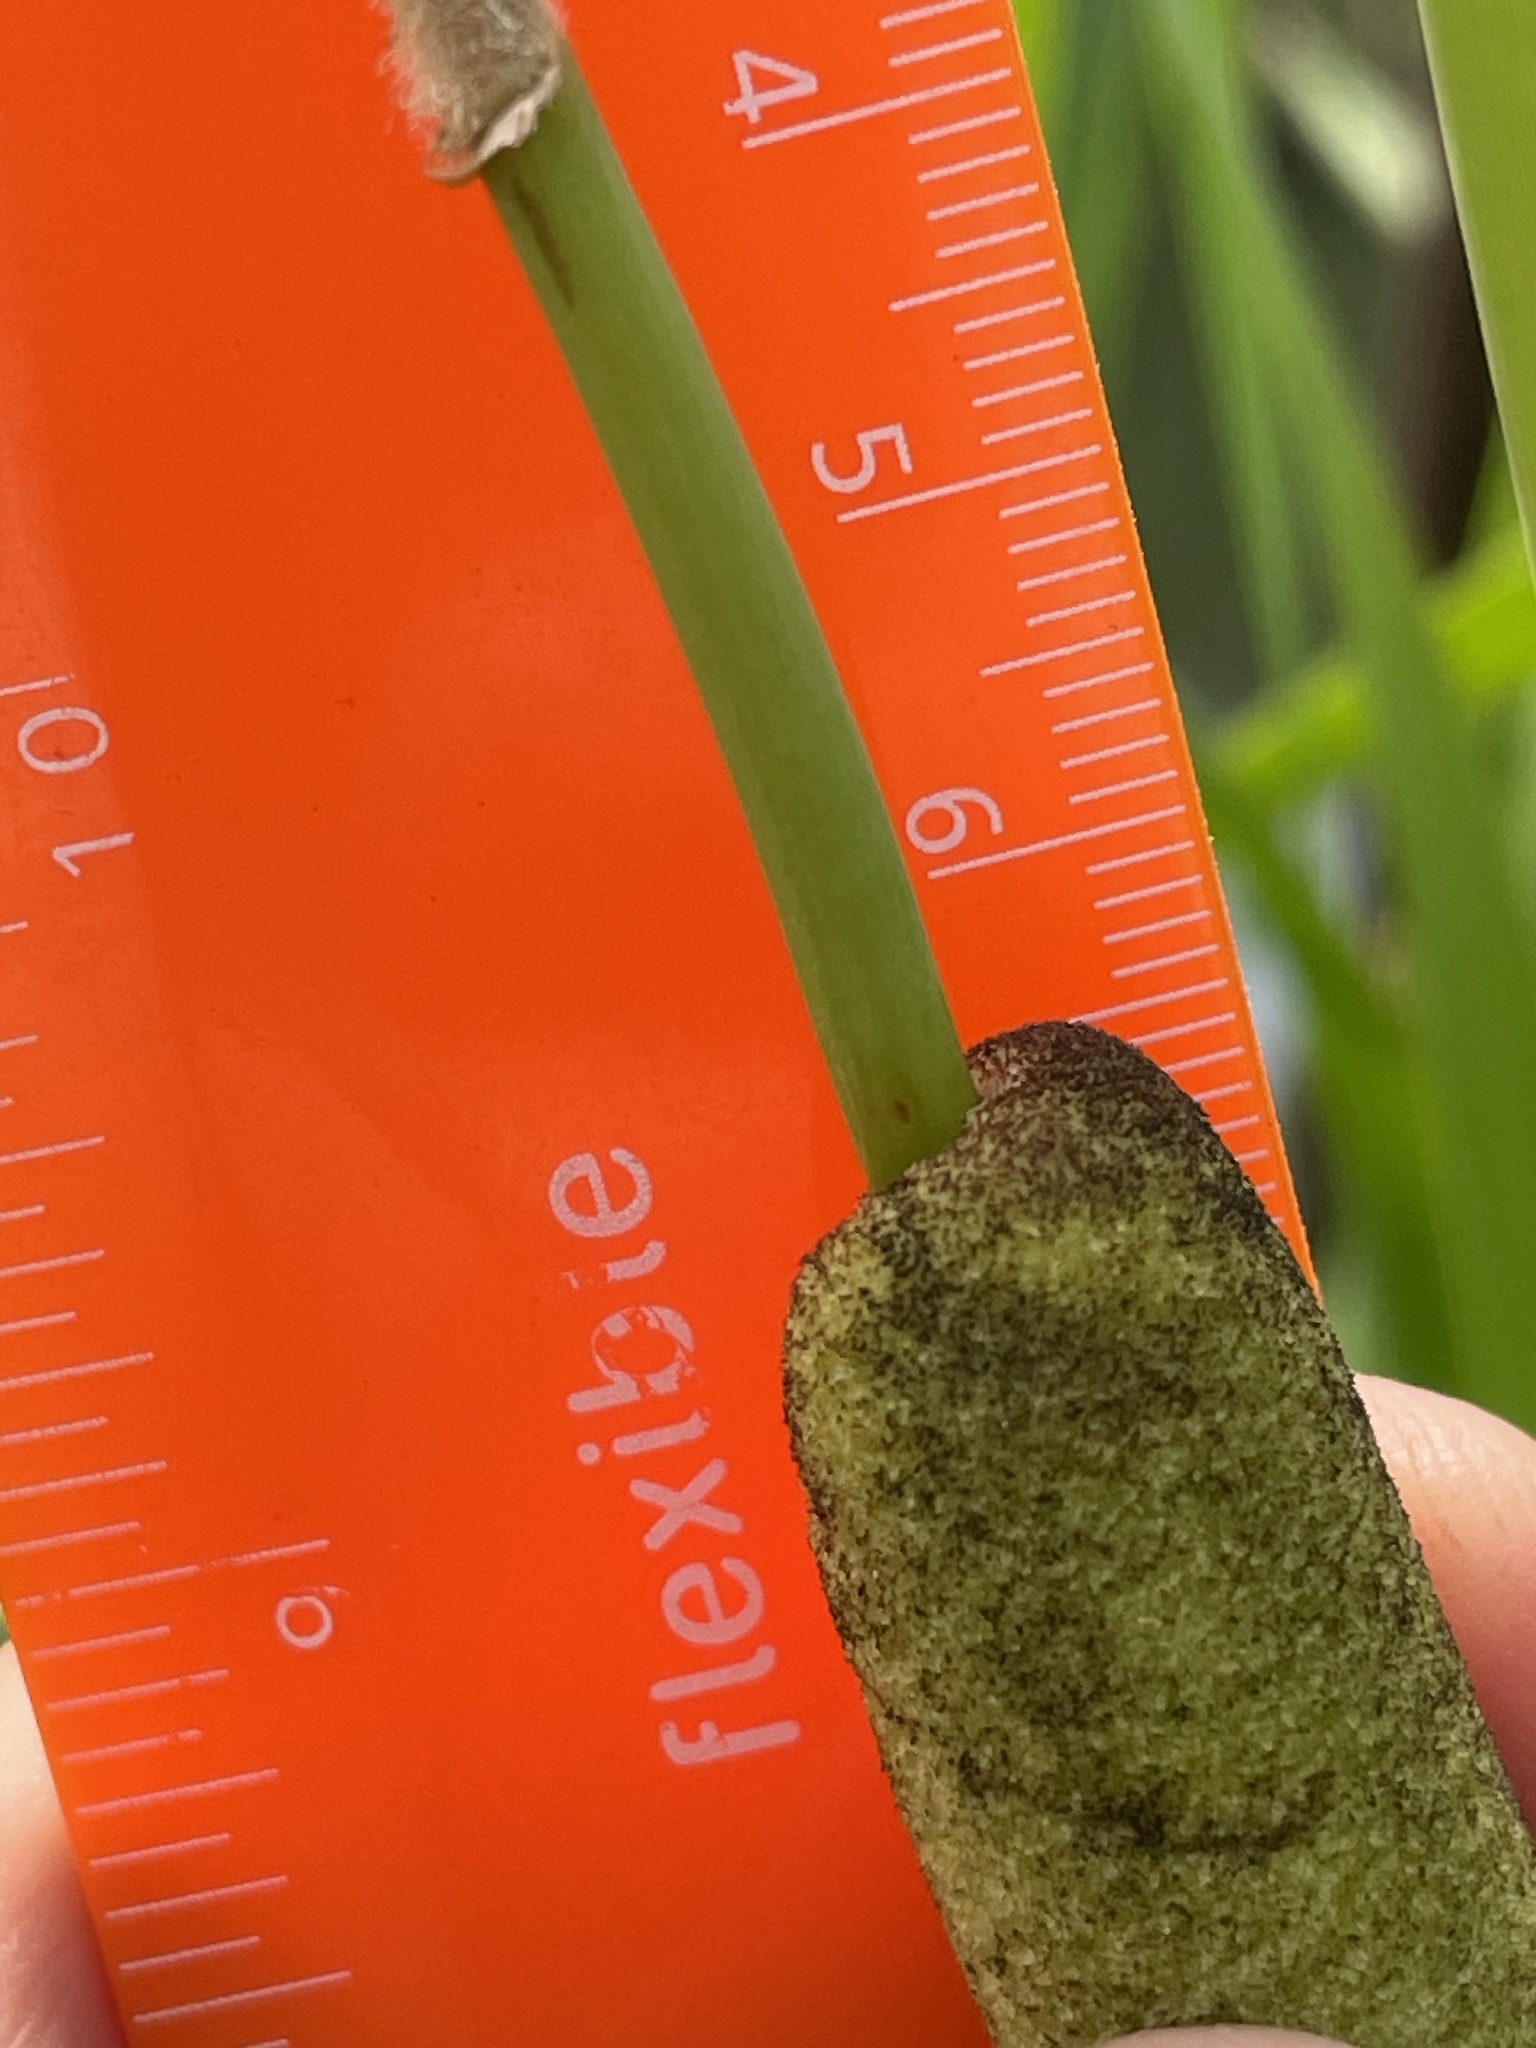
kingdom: Plantae
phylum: Tracheophyta
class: Liliopsida
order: Poales
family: Typhaceae
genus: Typha
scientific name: Typha glauca
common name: Blue cattail
